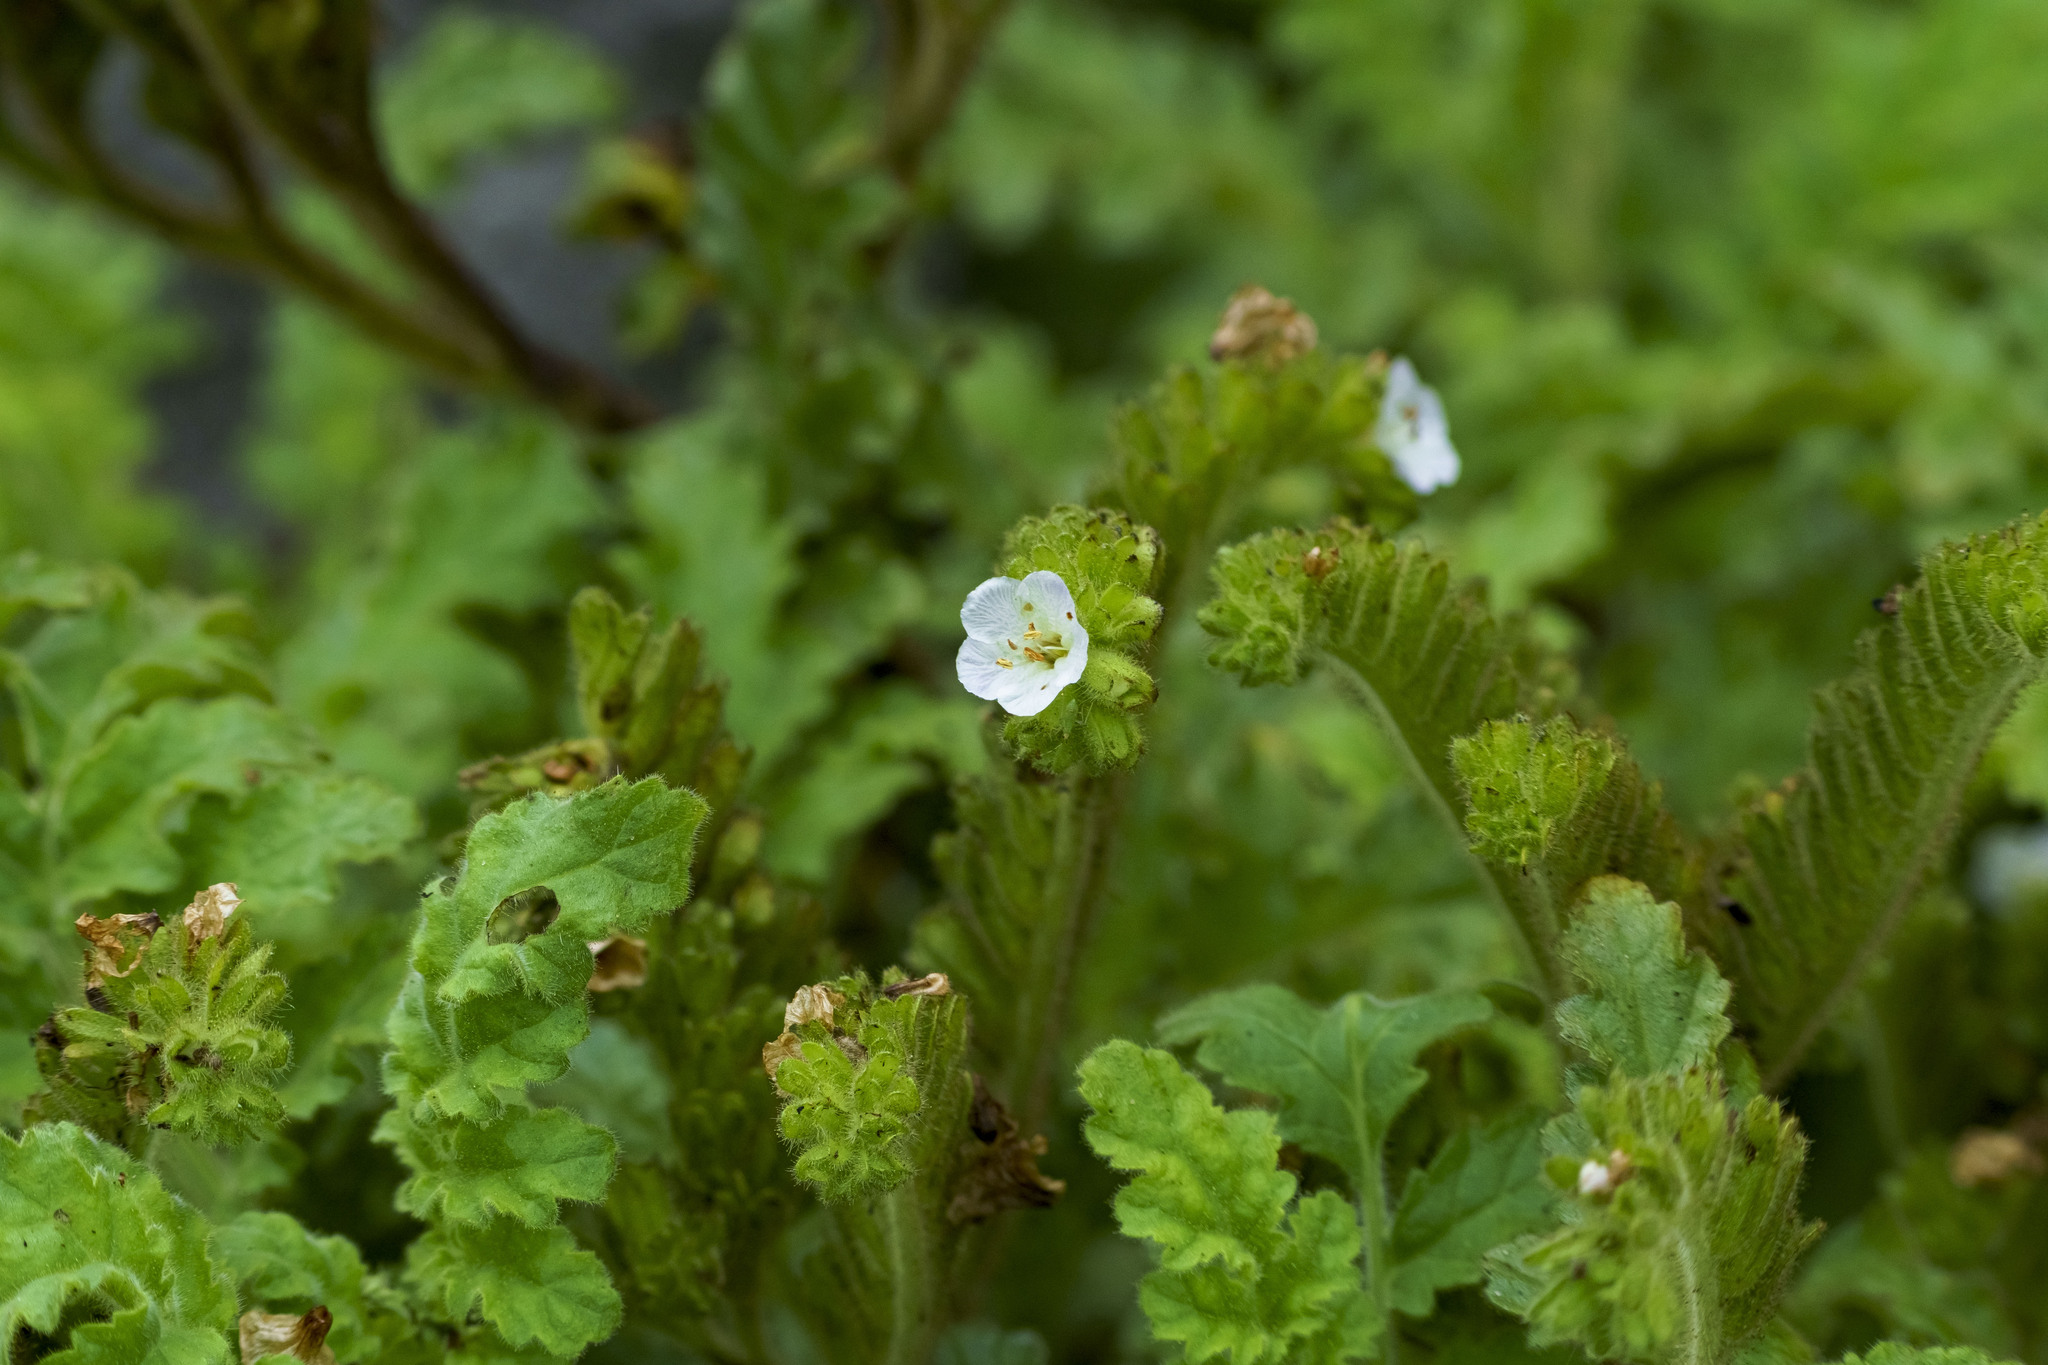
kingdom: Plantae
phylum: Tracheophyta
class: Magnoliopsida
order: Boraginales
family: Hydrophyllaceae
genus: Phacelia
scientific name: Phacelia ixodes
